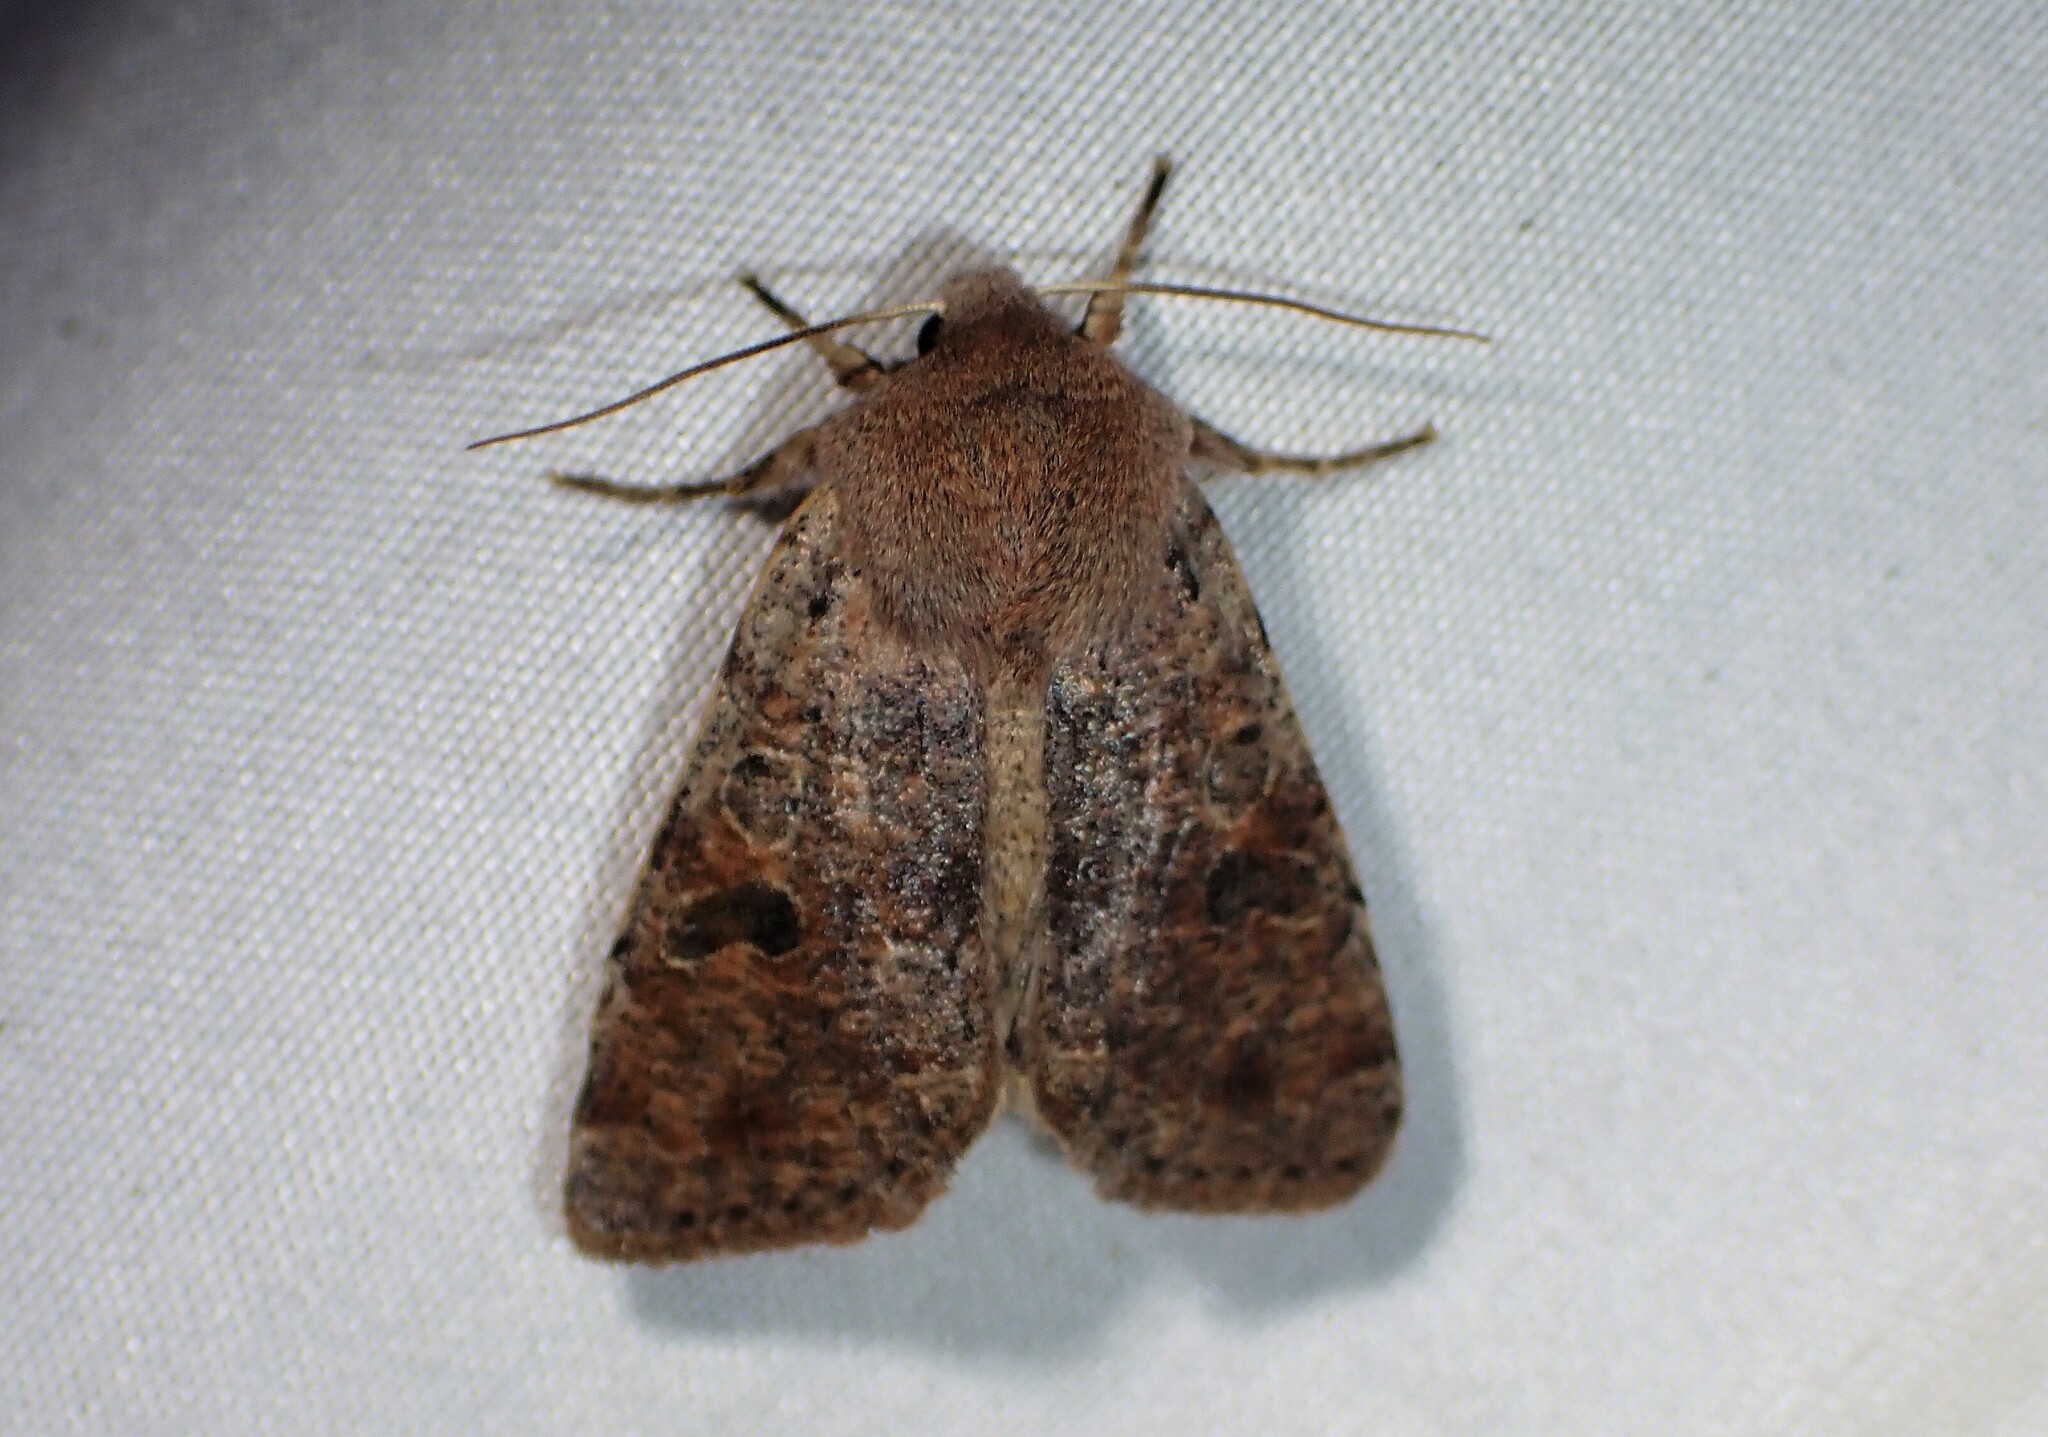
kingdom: Animalia
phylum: Arthropoda
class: Insecta
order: Lepidoptera
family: Noctuidae
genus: Orthosia
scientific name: Orthosia hibisci
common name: Green fruitworm
